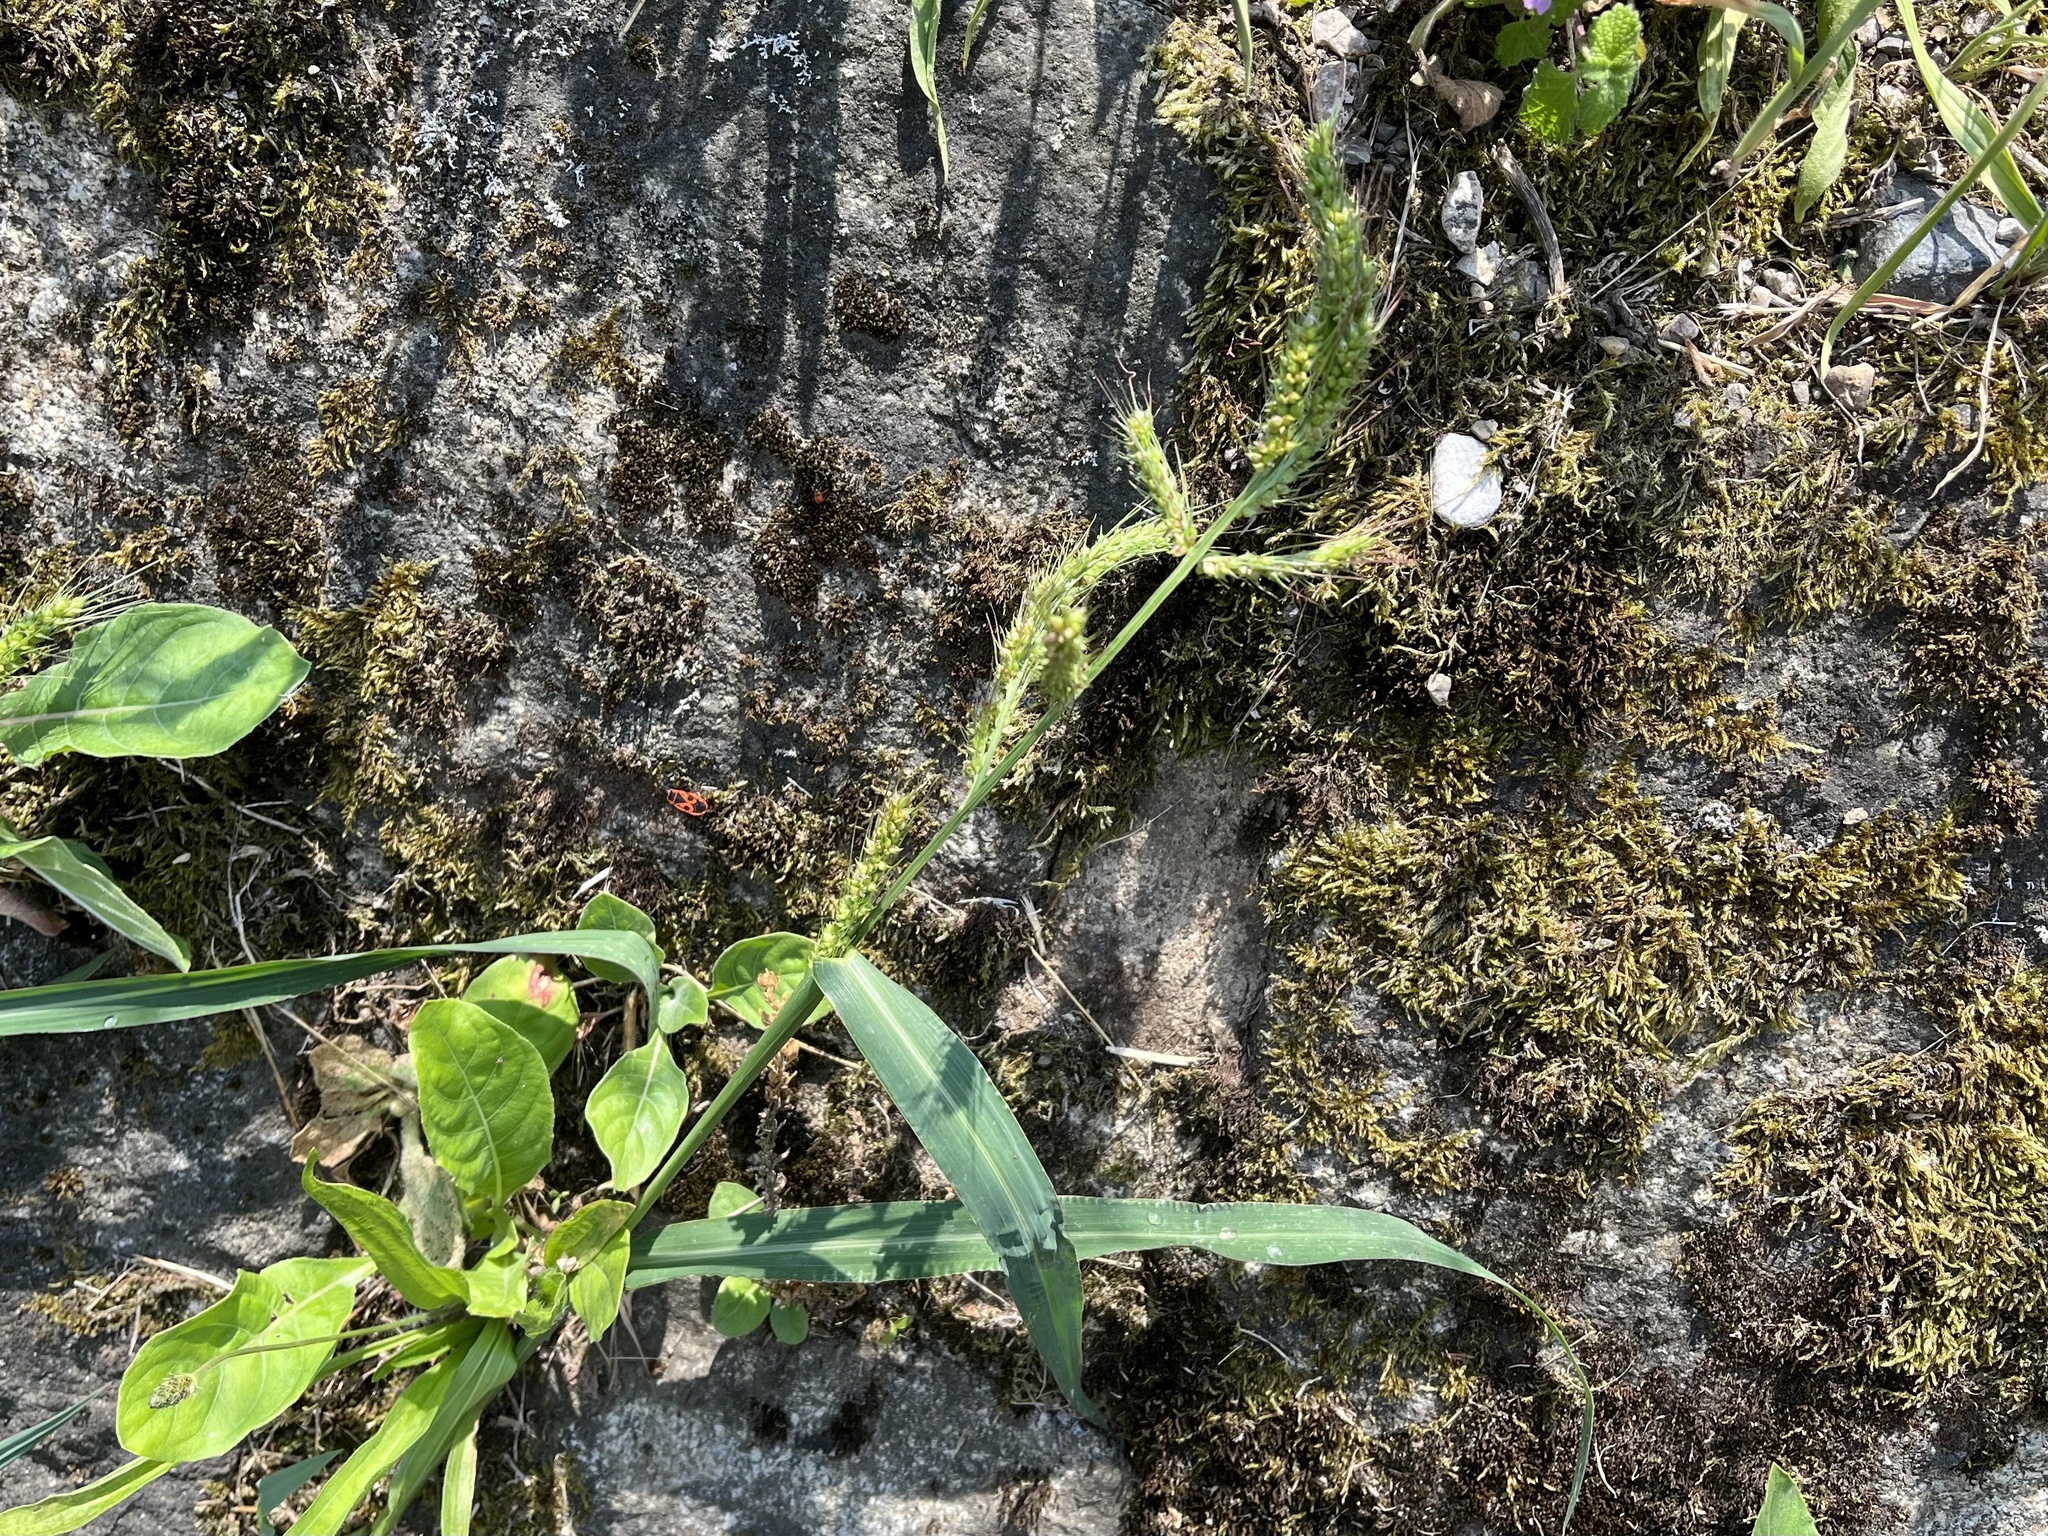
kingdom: Plantae
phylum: Tracheophyta
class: Liliopsida
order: Poales
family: Poaceae
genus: Echinochloa
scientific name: Echinochloa crus-galli
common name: Cockspur
